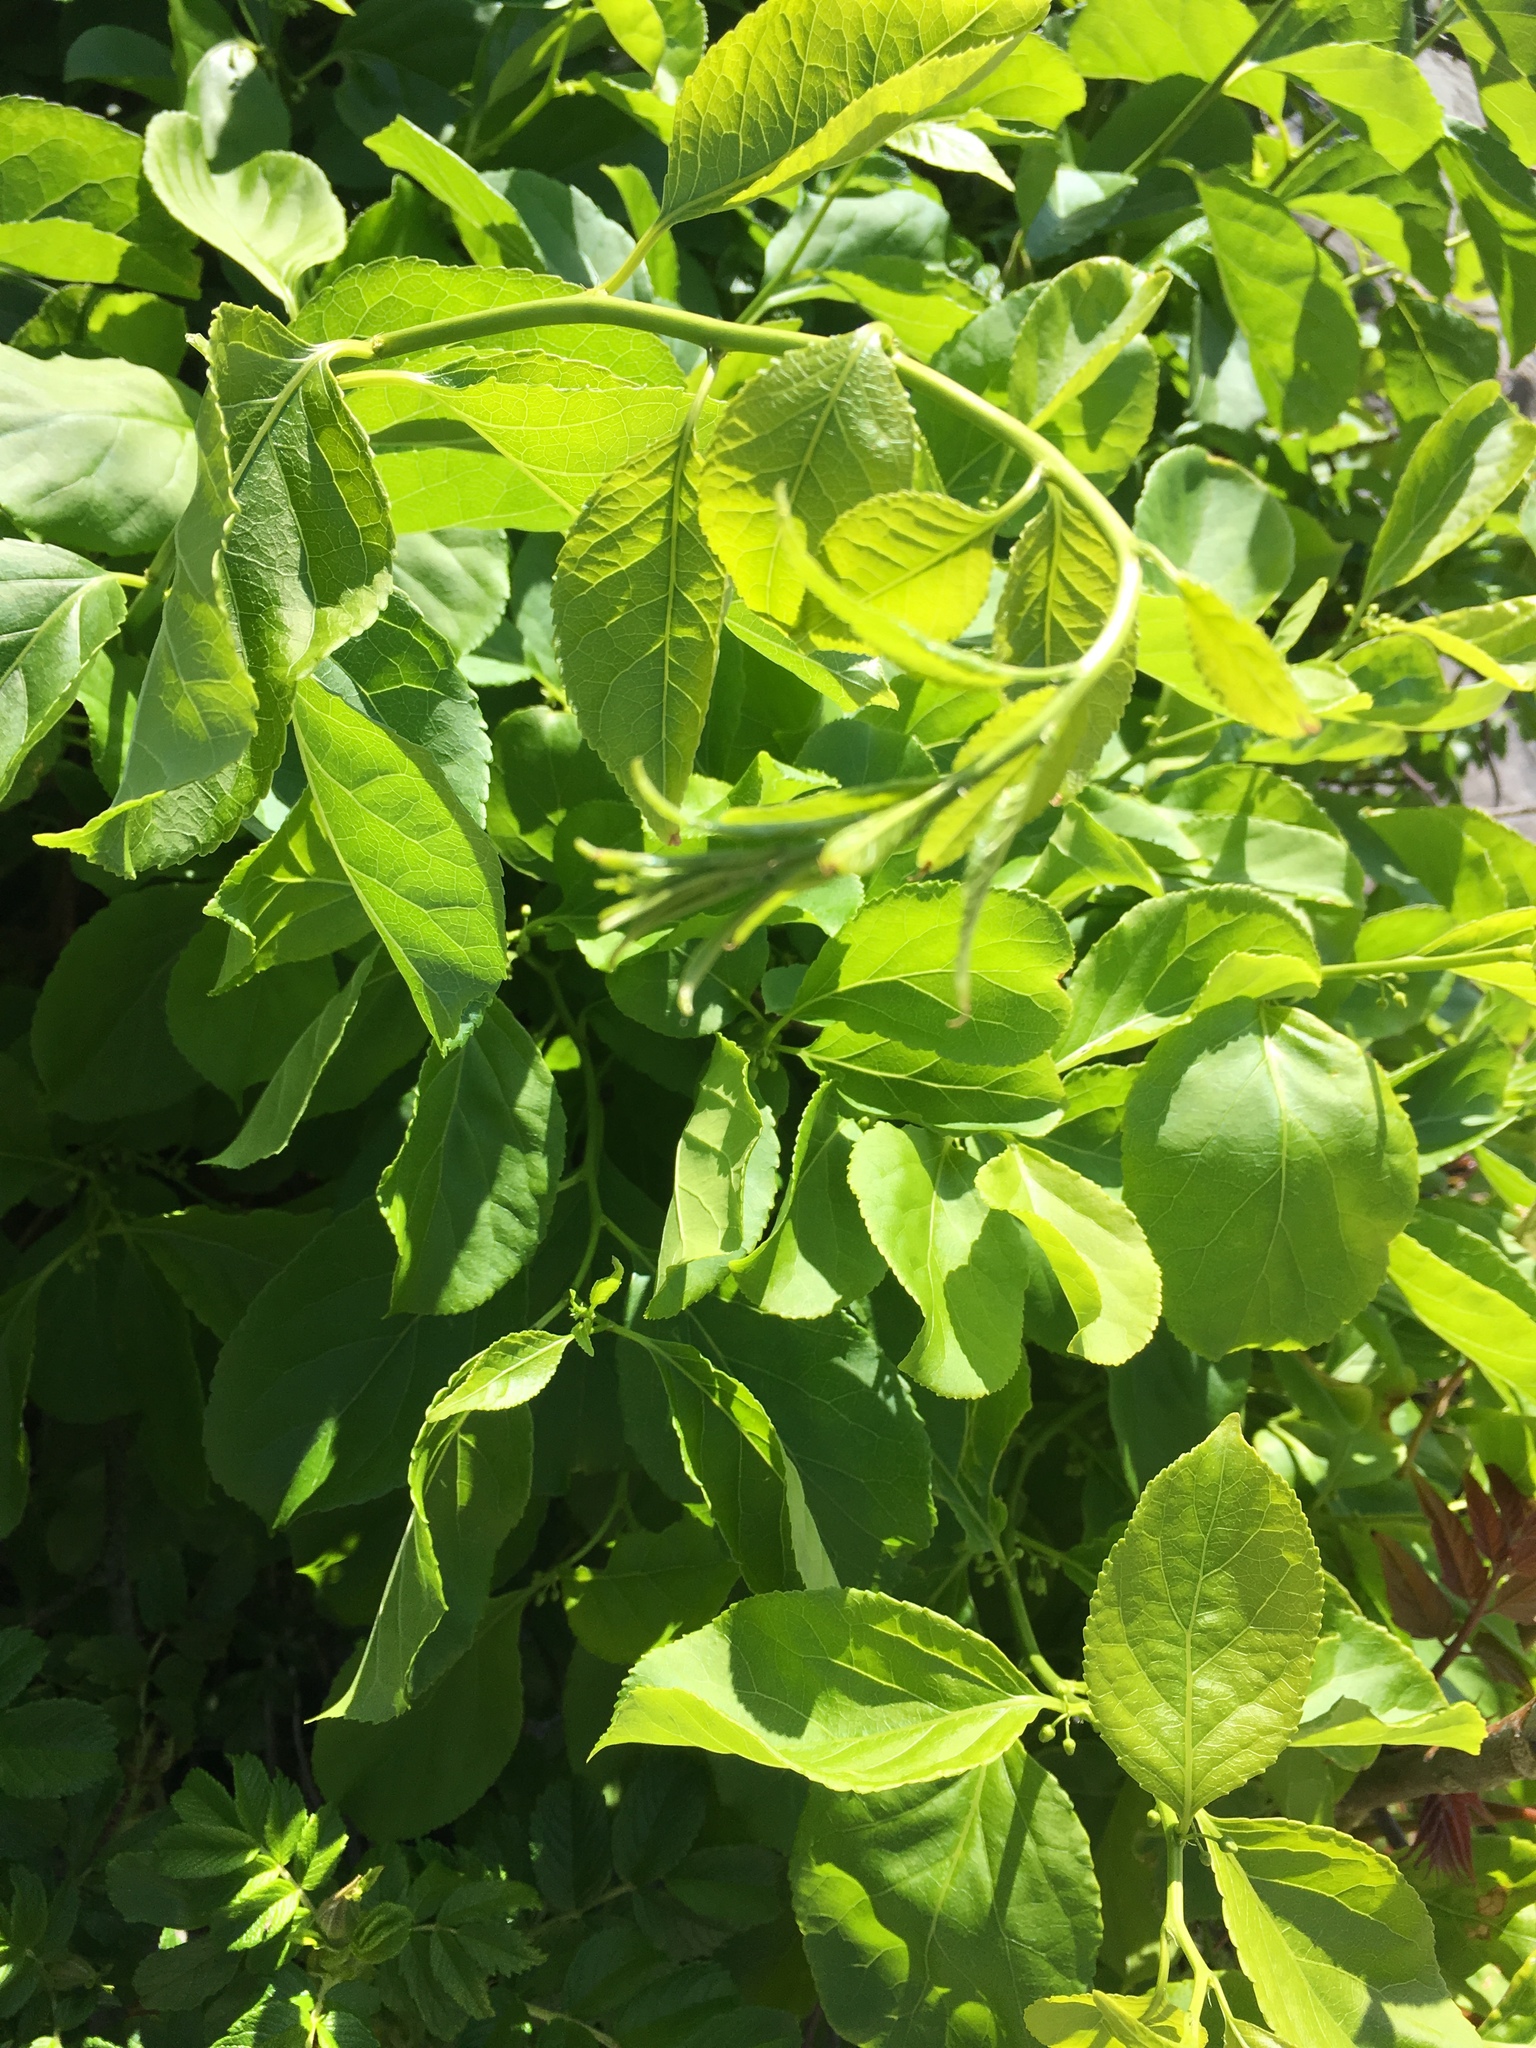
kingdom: Plantae
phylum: Tracheophyta
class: Magnoliopsida
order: Celastrales
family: Celastraceae
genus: Celastrus
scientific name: Celastrus orbiculatus
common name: Oriental bittersweet
